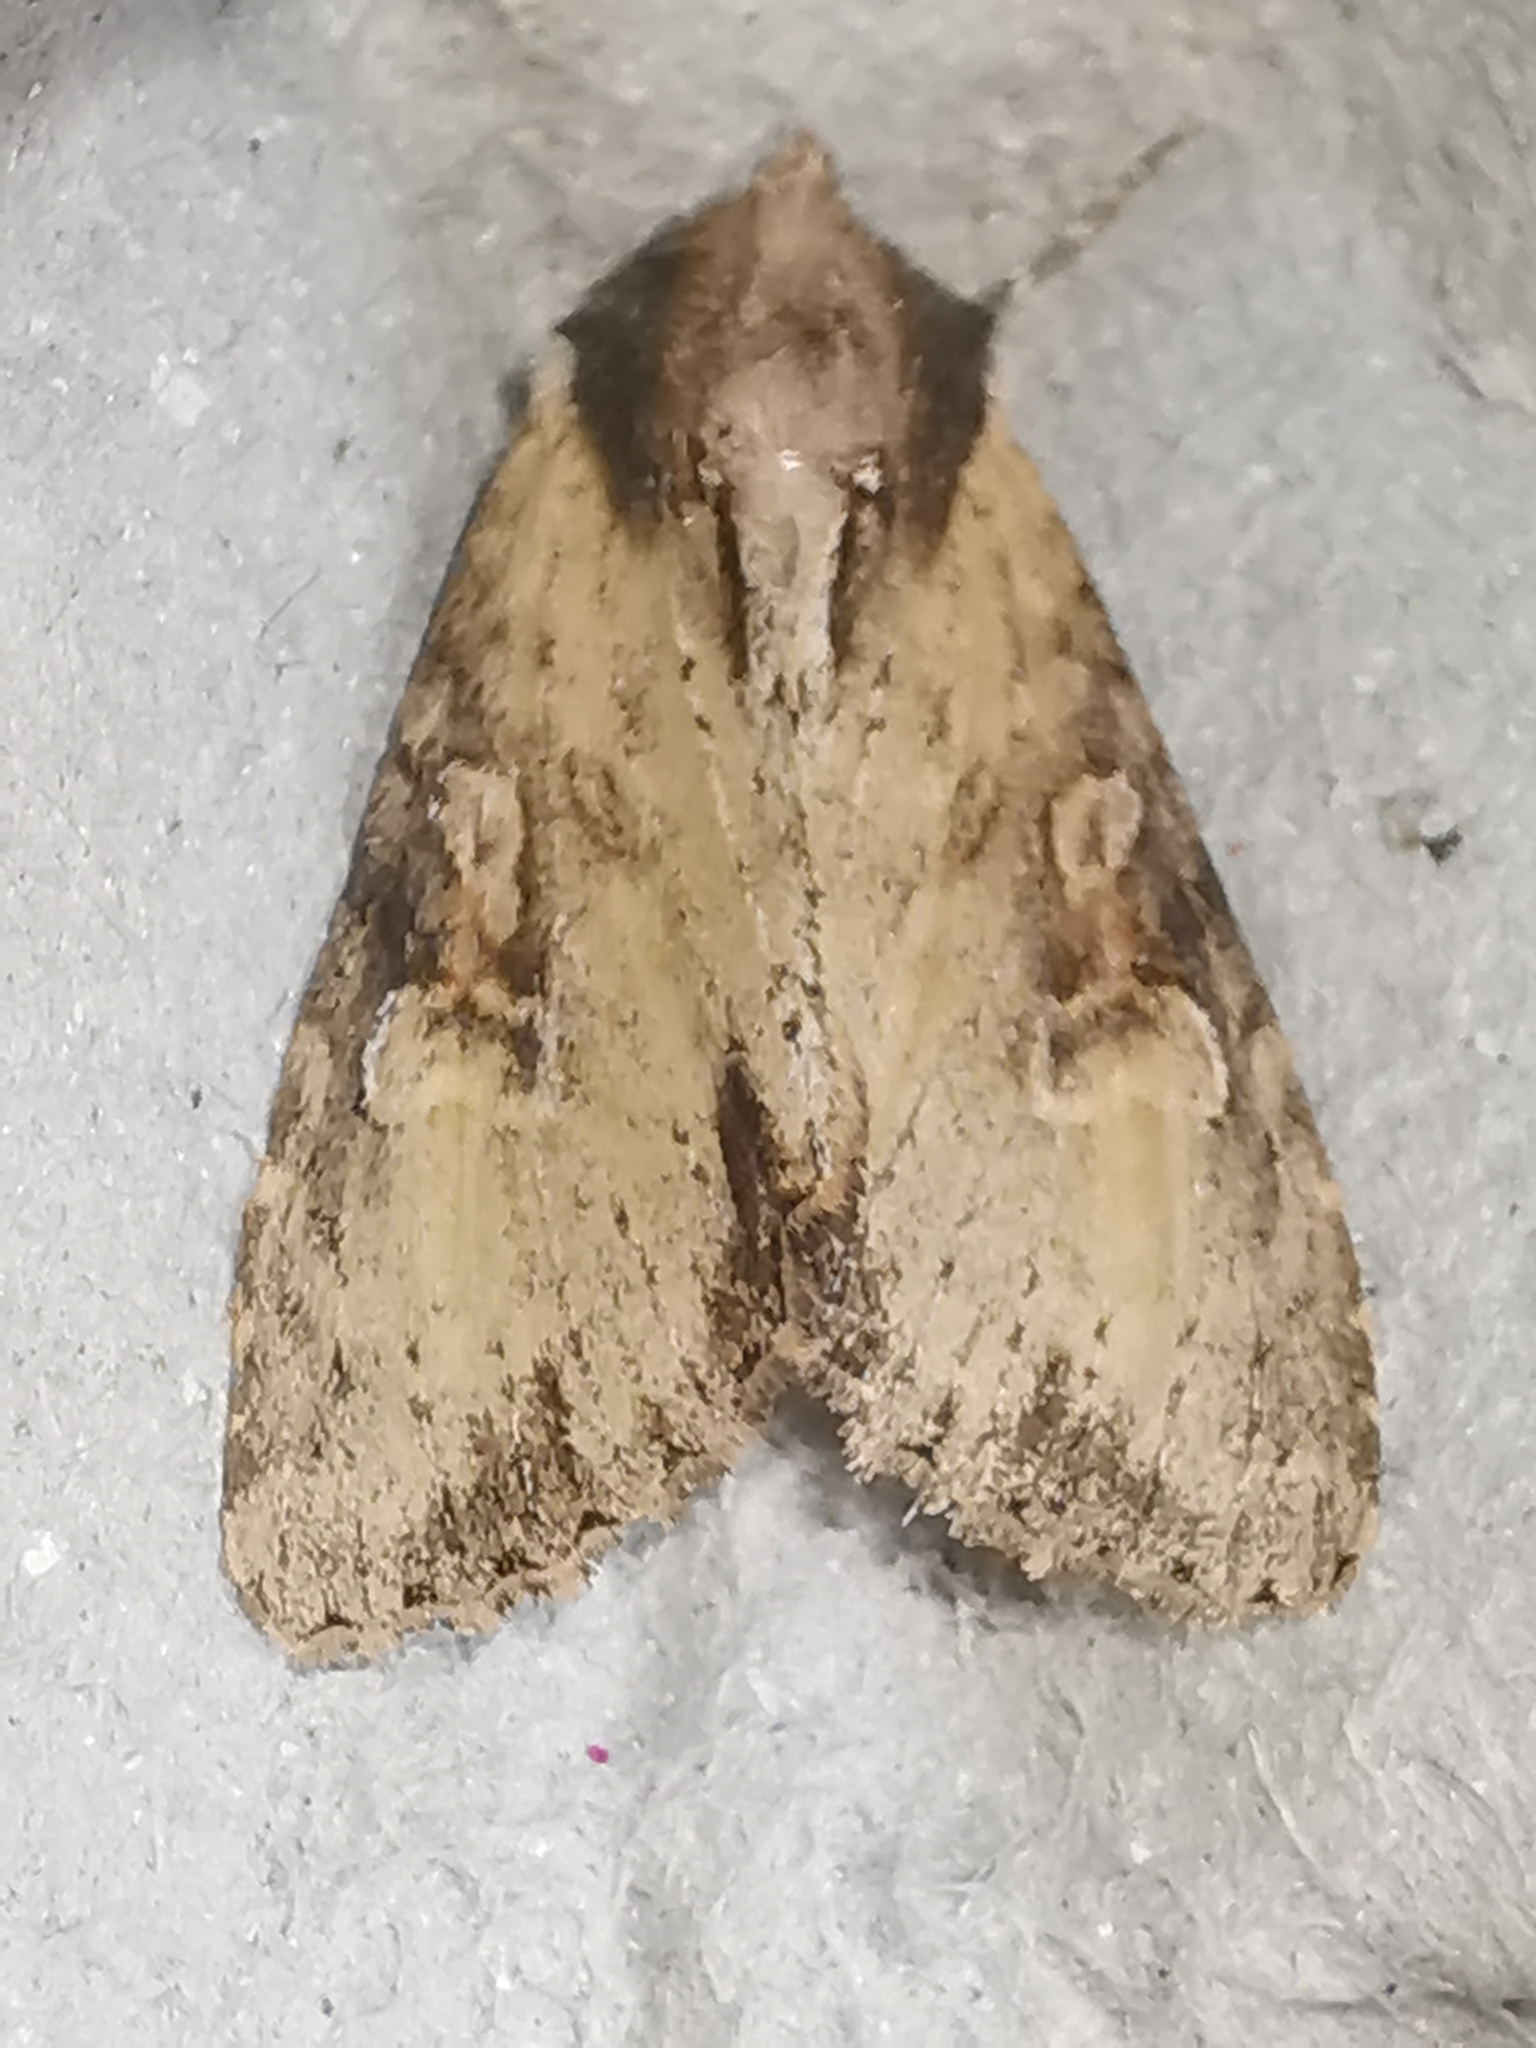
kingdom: Animalia
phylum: Arthropoda
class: Insecta
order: Lepidoptera
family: Noctuidae
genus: Apamea
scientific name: Apamea crenata
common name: Clouded-bordered brindle
